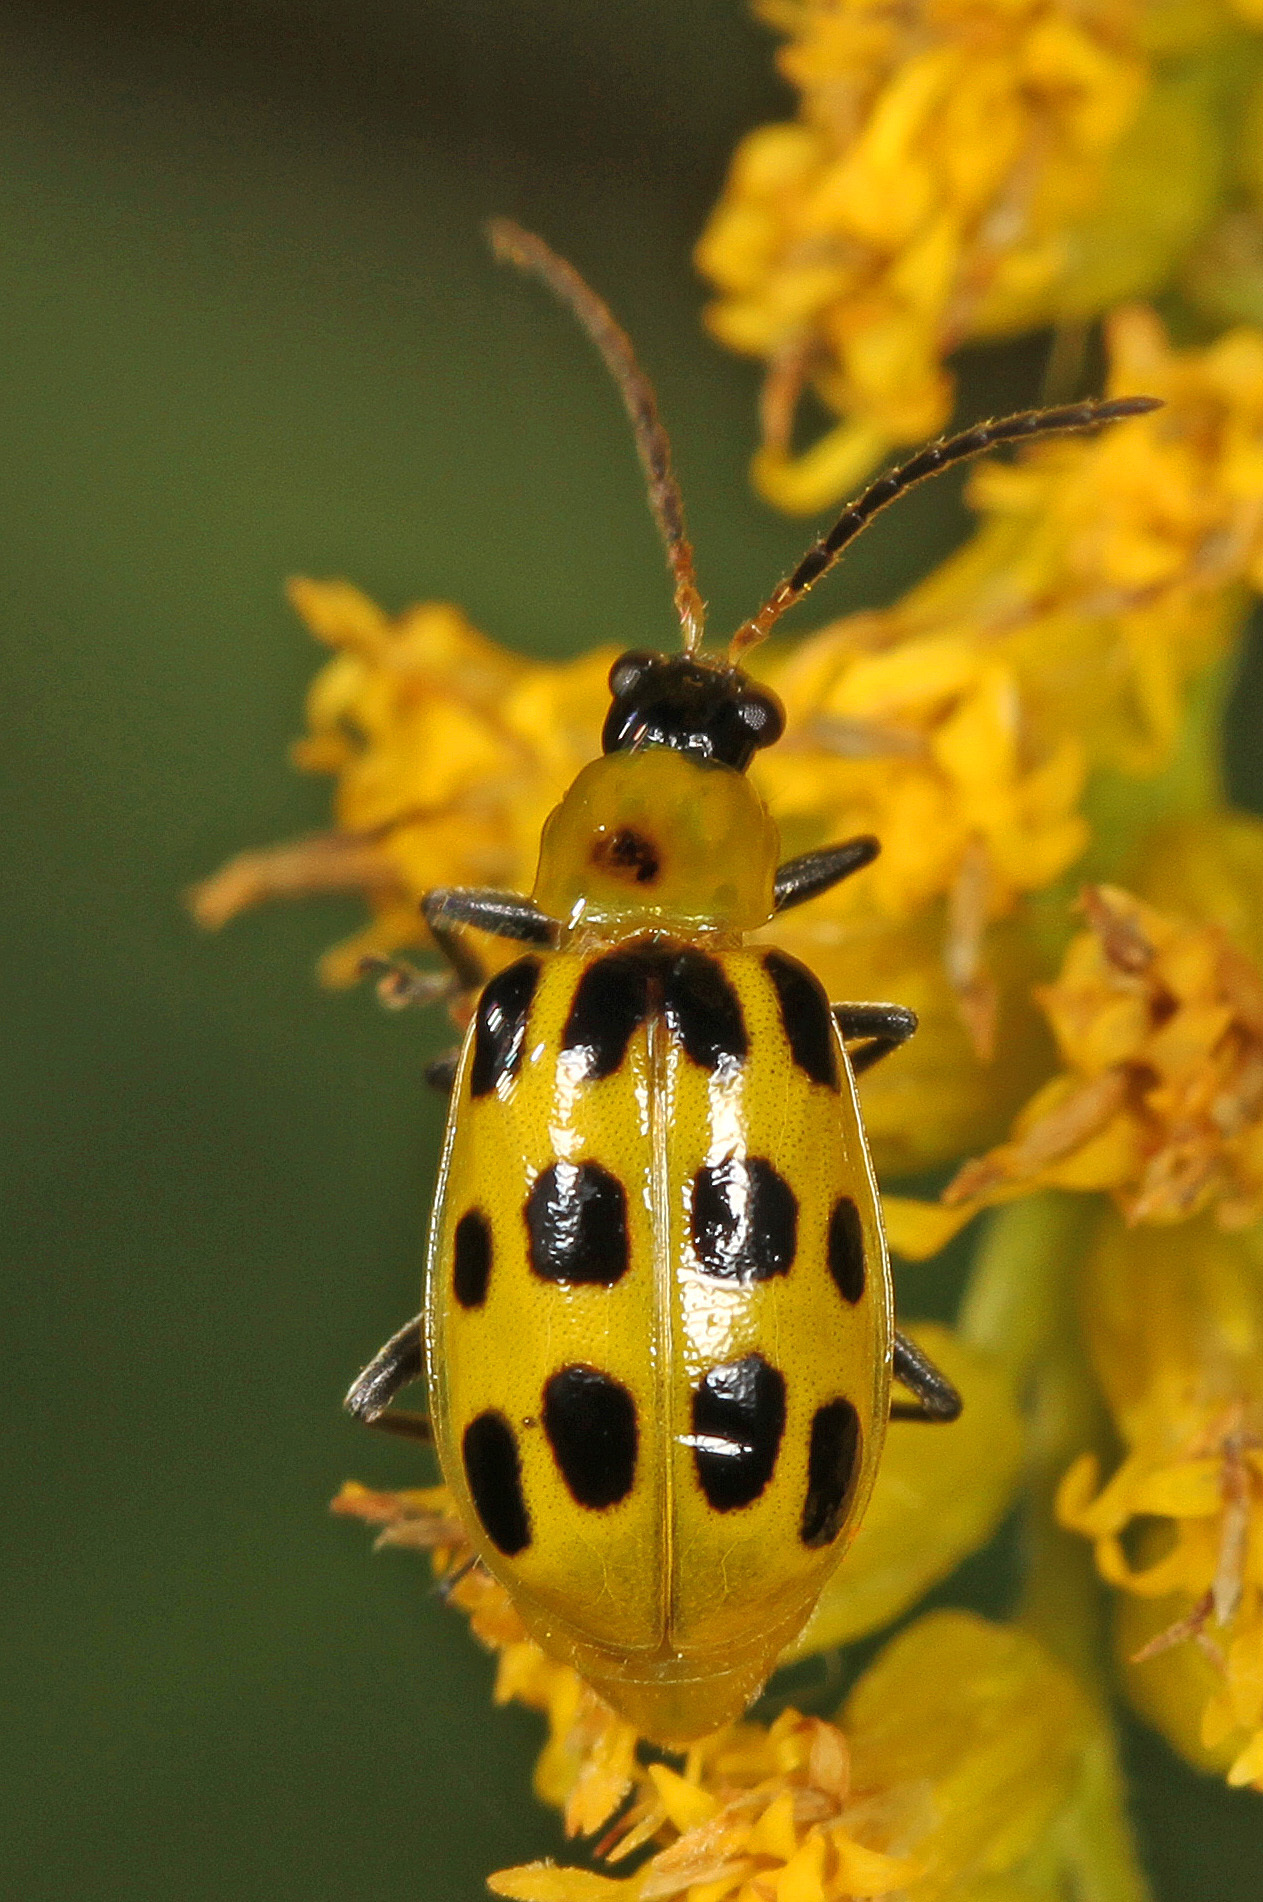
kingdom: Animalia
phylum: Arthropoda
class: Insecta
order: Coleoptera
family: Chrysomelidae
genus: Diabrotica
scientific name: Diabrotica undecimpunctata
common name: Spotted cucumber beetle
